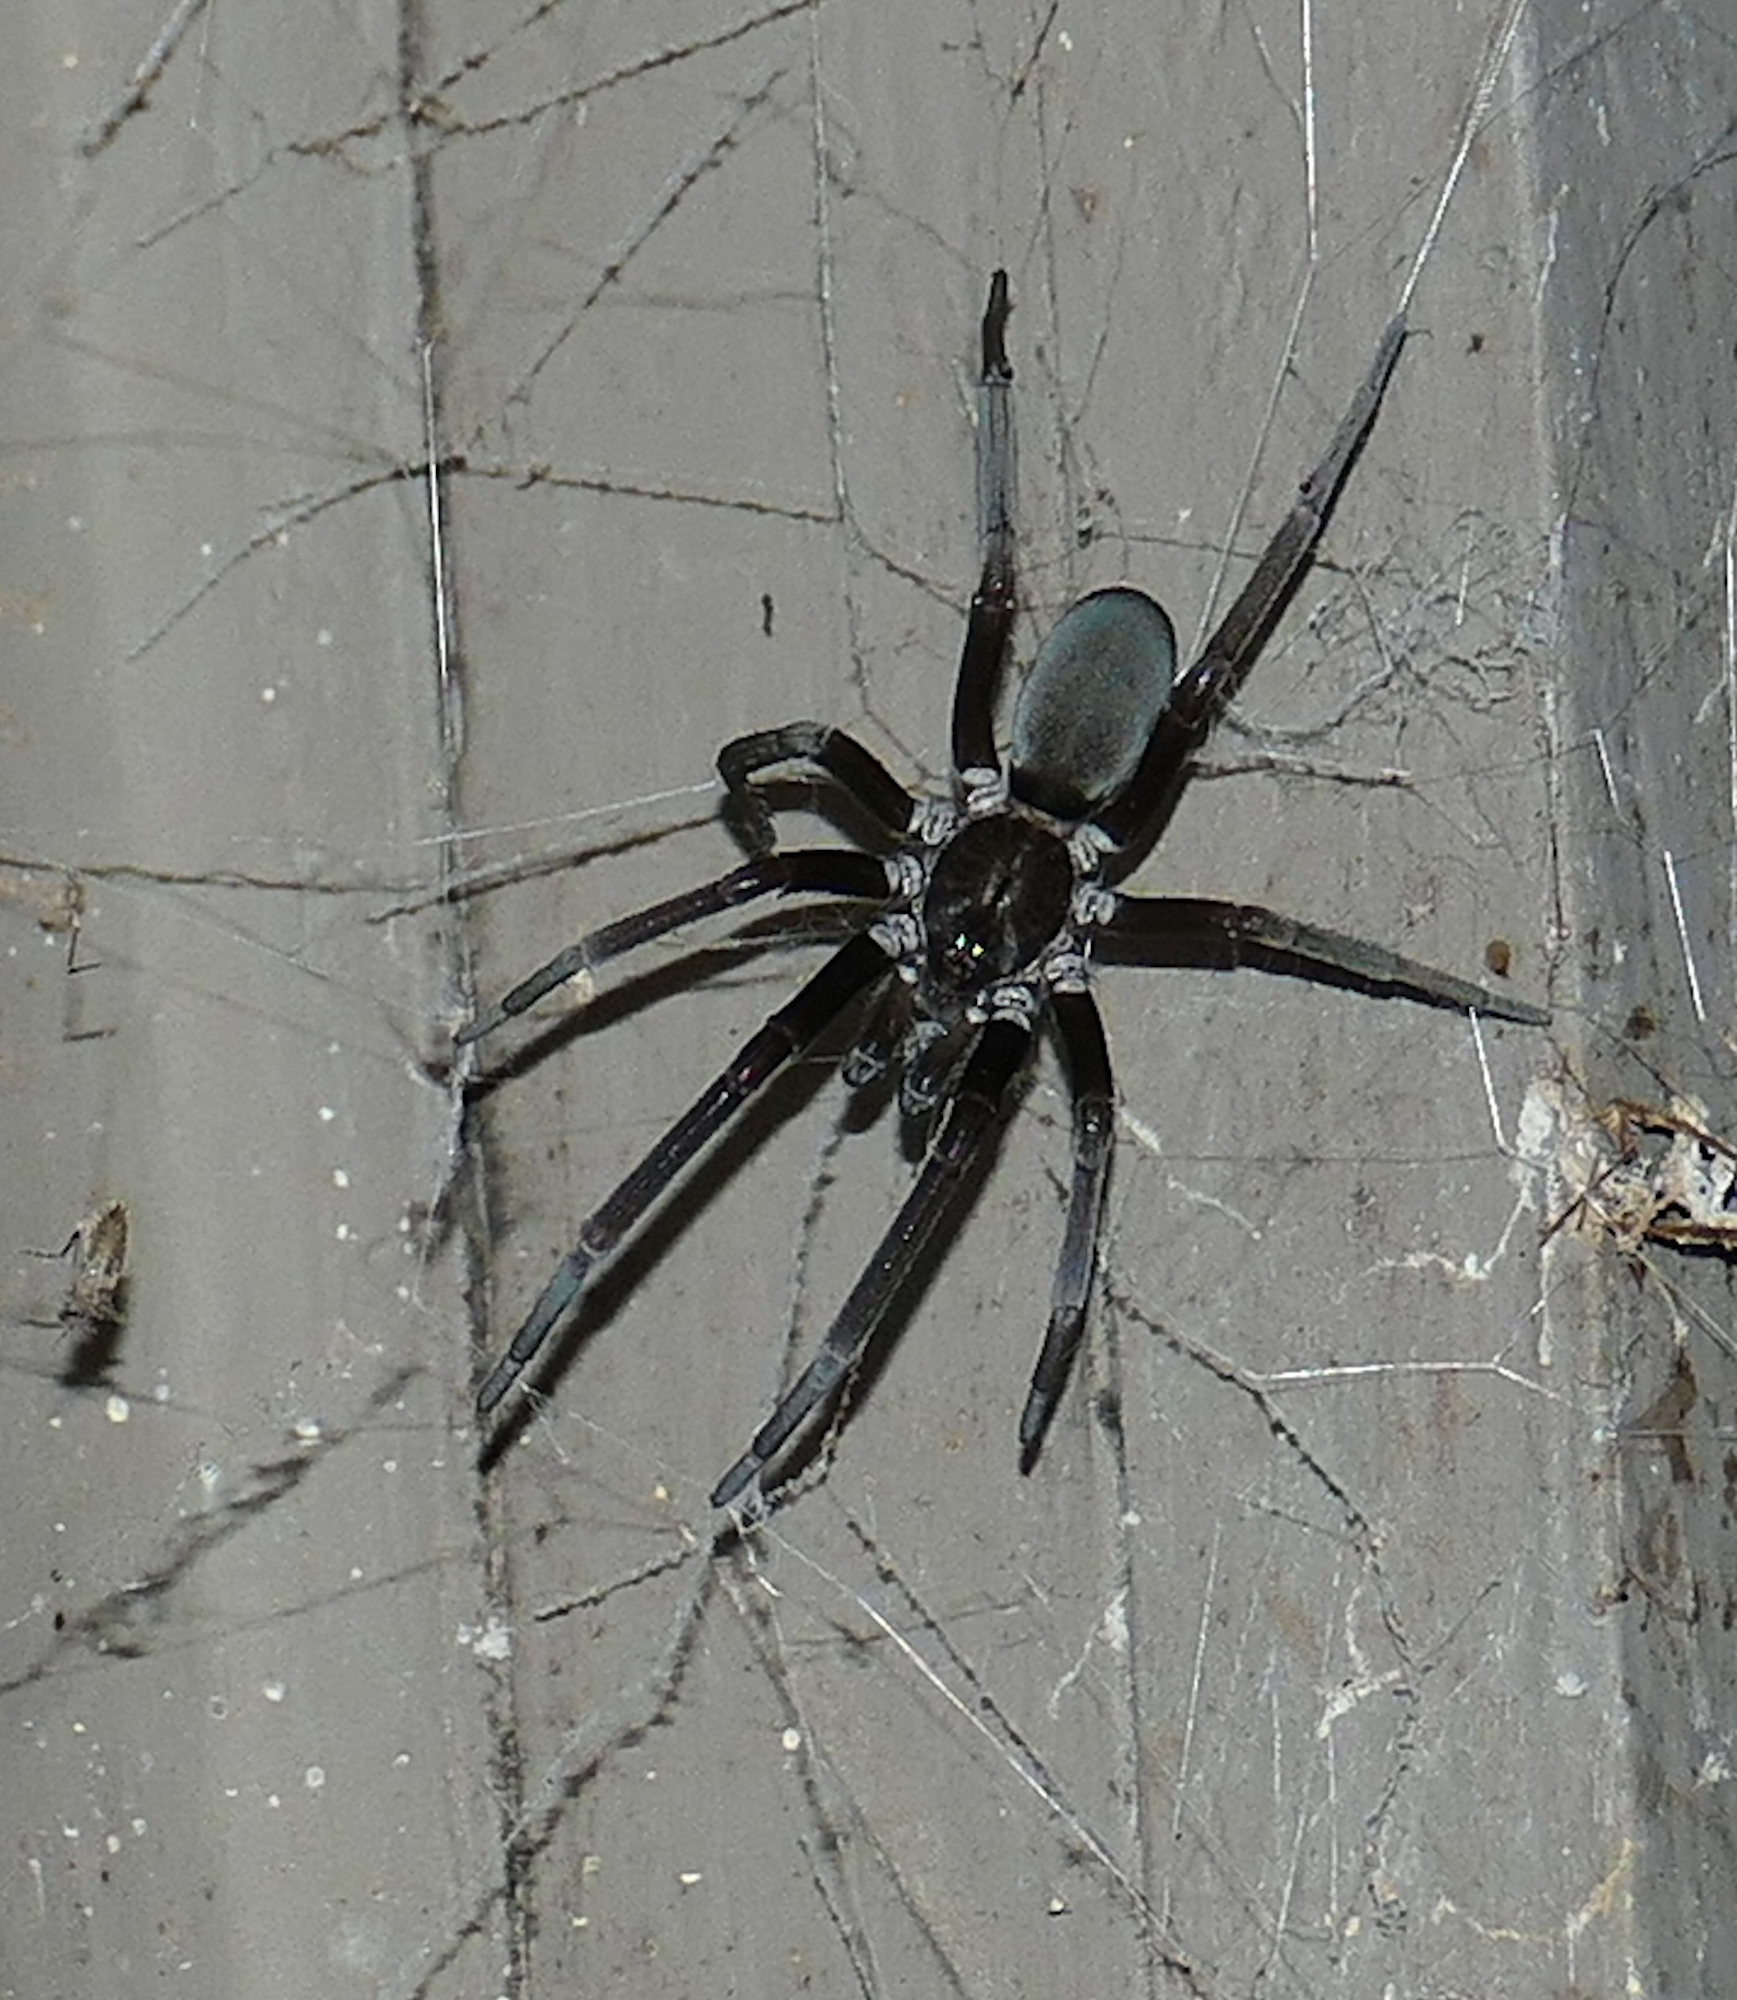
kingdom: Animalia
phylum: Arthropoda
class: Arachnida
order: Araneae
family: Filistatidae
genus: Kukulcania
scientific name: Kukulcania hibernalis
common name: Crevice weaver
